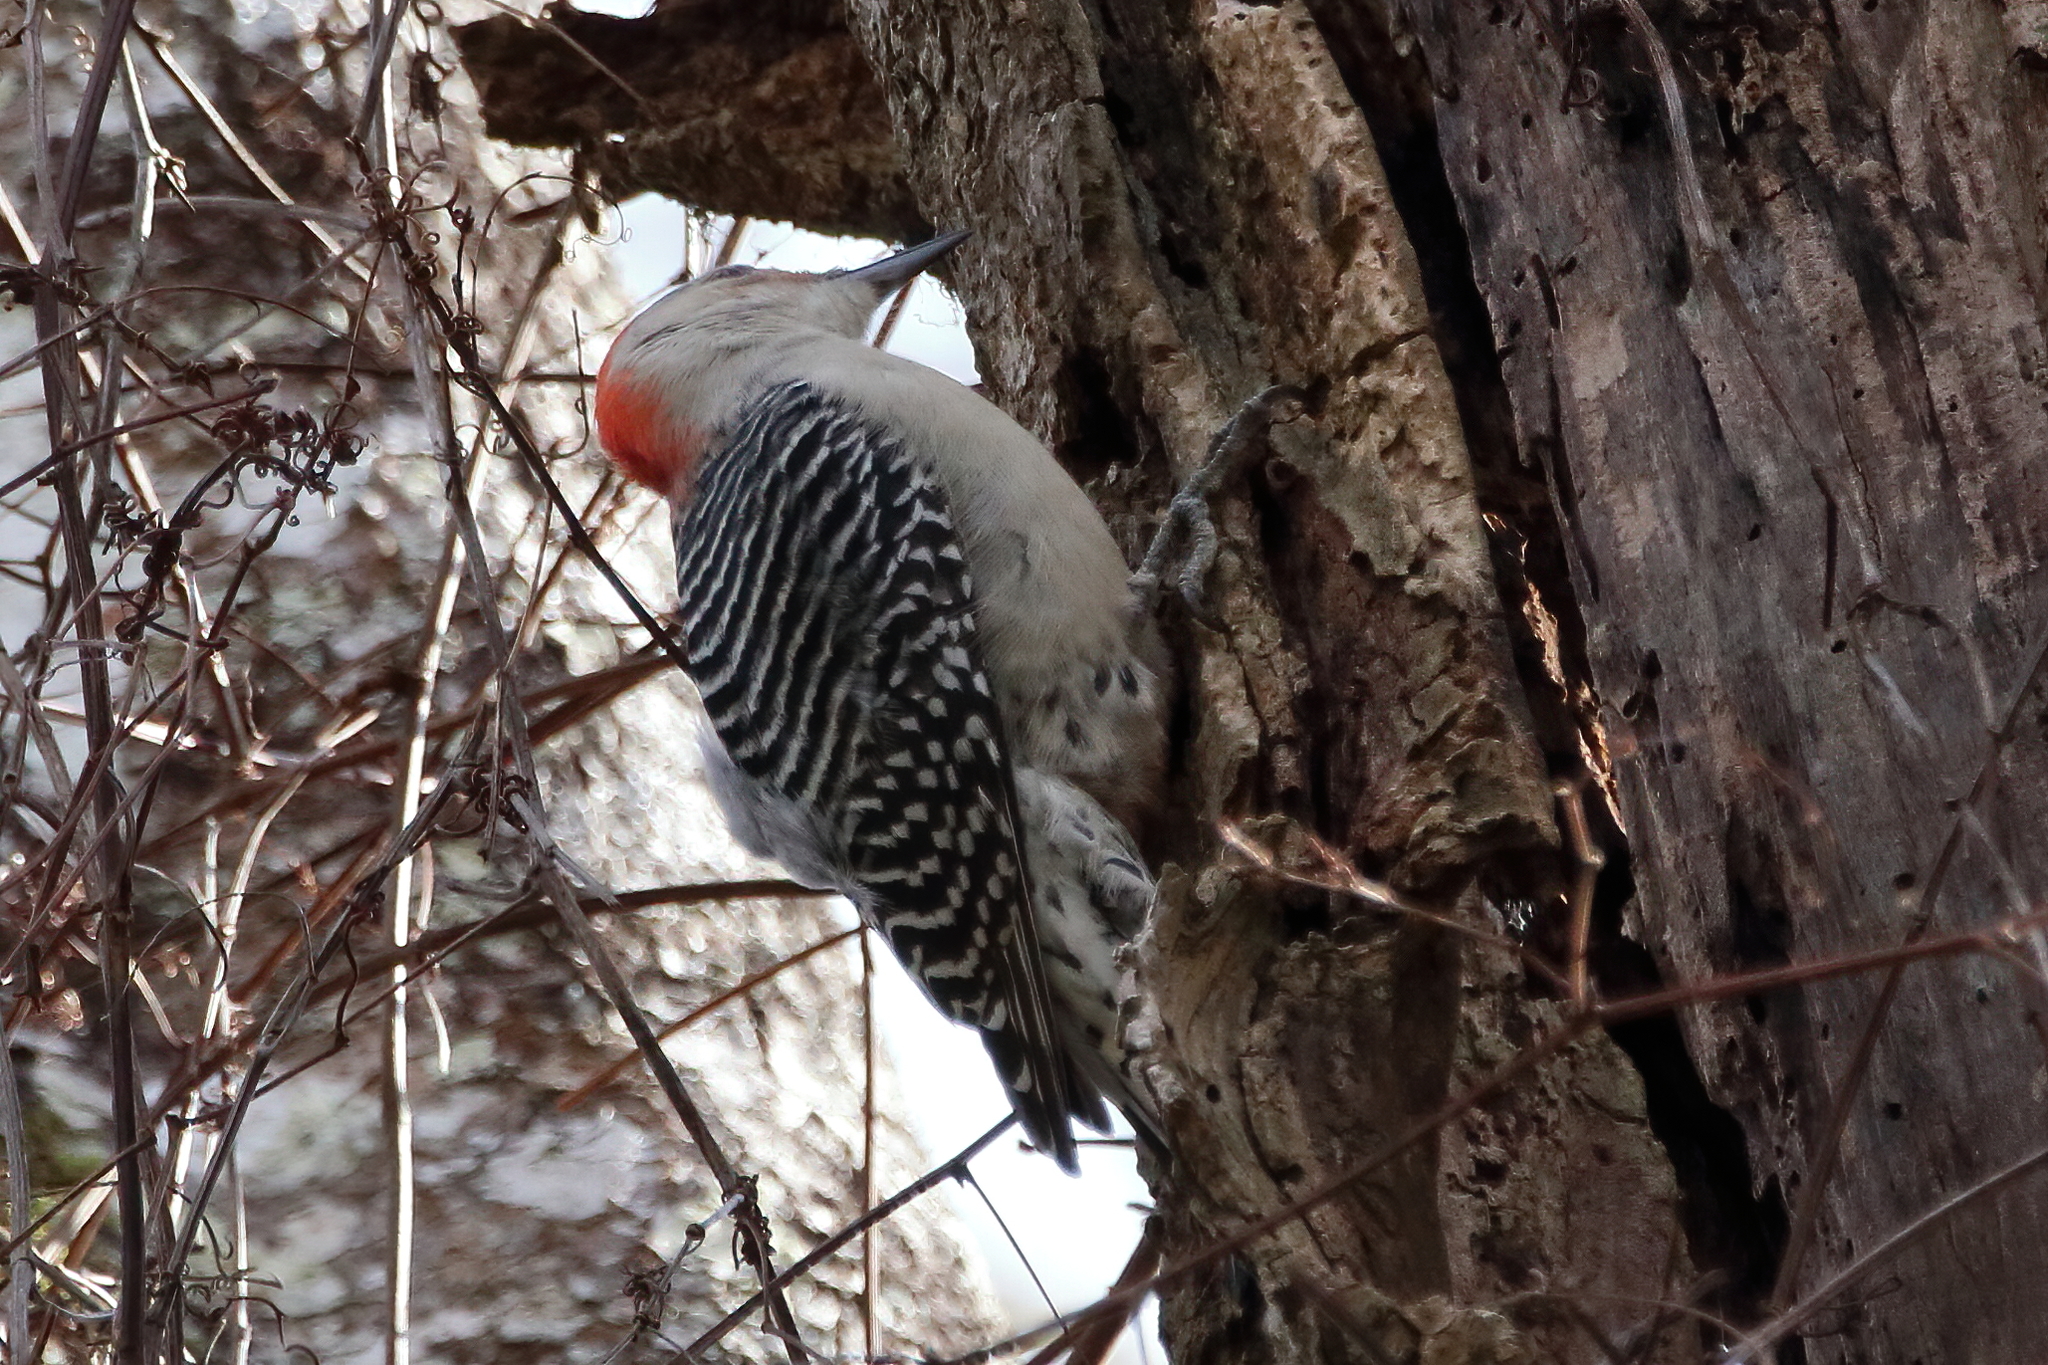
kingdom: Animalia
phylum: Chordata
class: Aves
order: Piciformes
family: Picidae
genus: Melanerpes
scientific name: Melanerpes carolinus
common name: Red-bellied woodpecker
